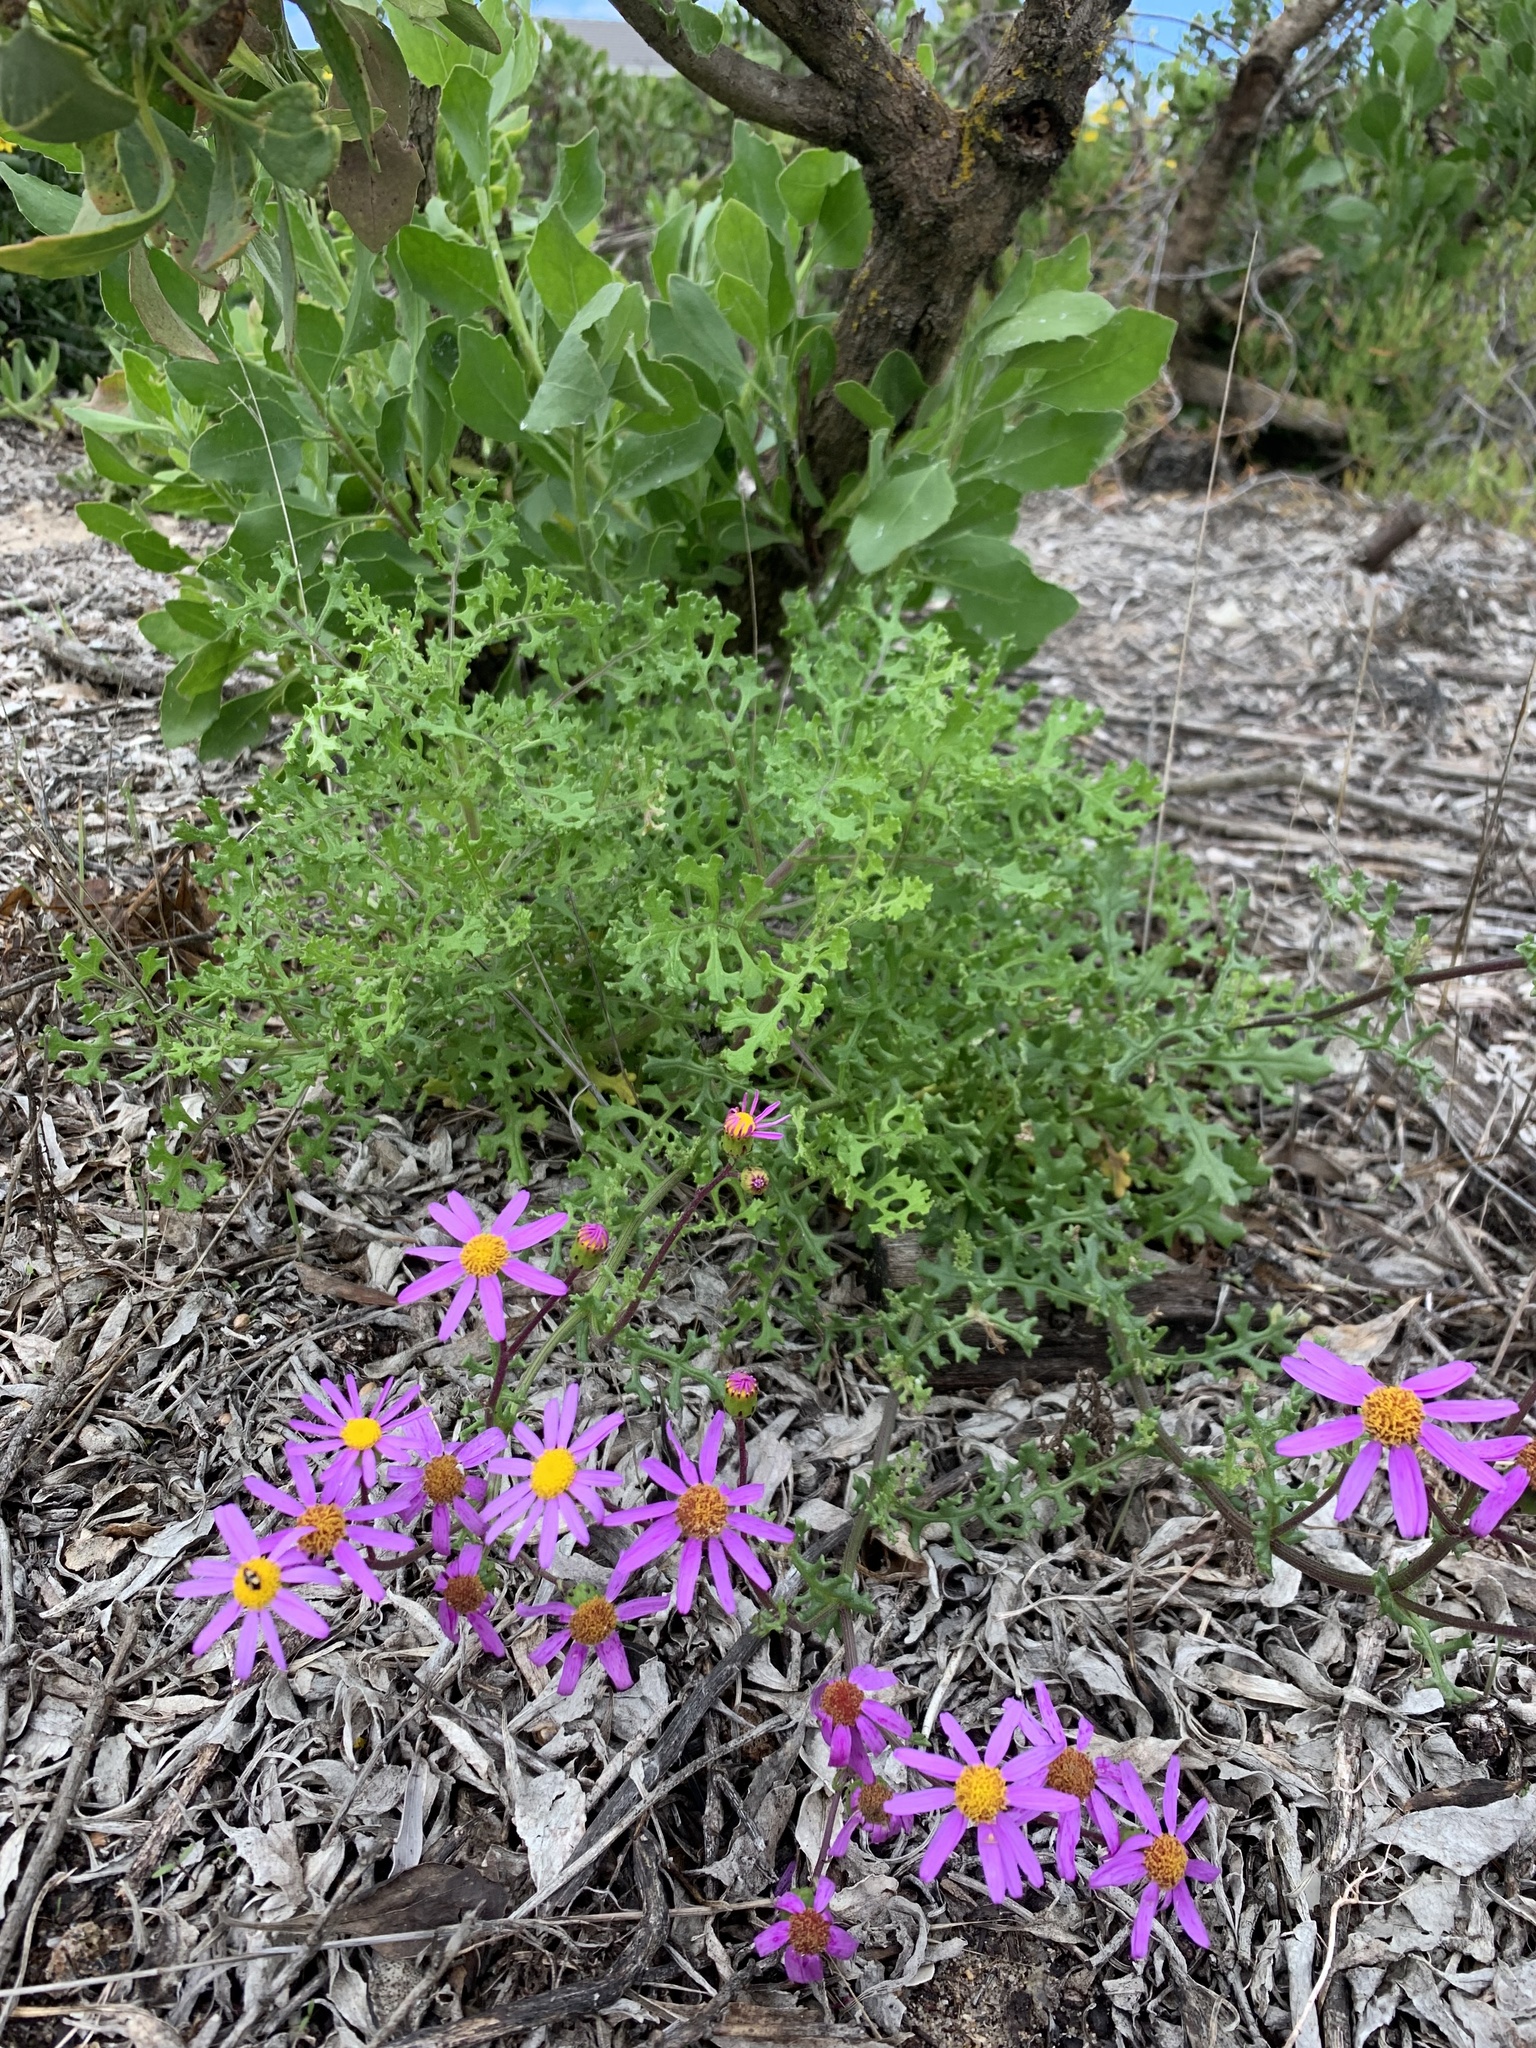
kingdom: Plantae
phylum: Tracheophyta
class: Magnoliopsida
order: Asterales
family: Asteraceae
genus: Senecio
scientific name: Senecio elegans
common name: Purple groundsel
